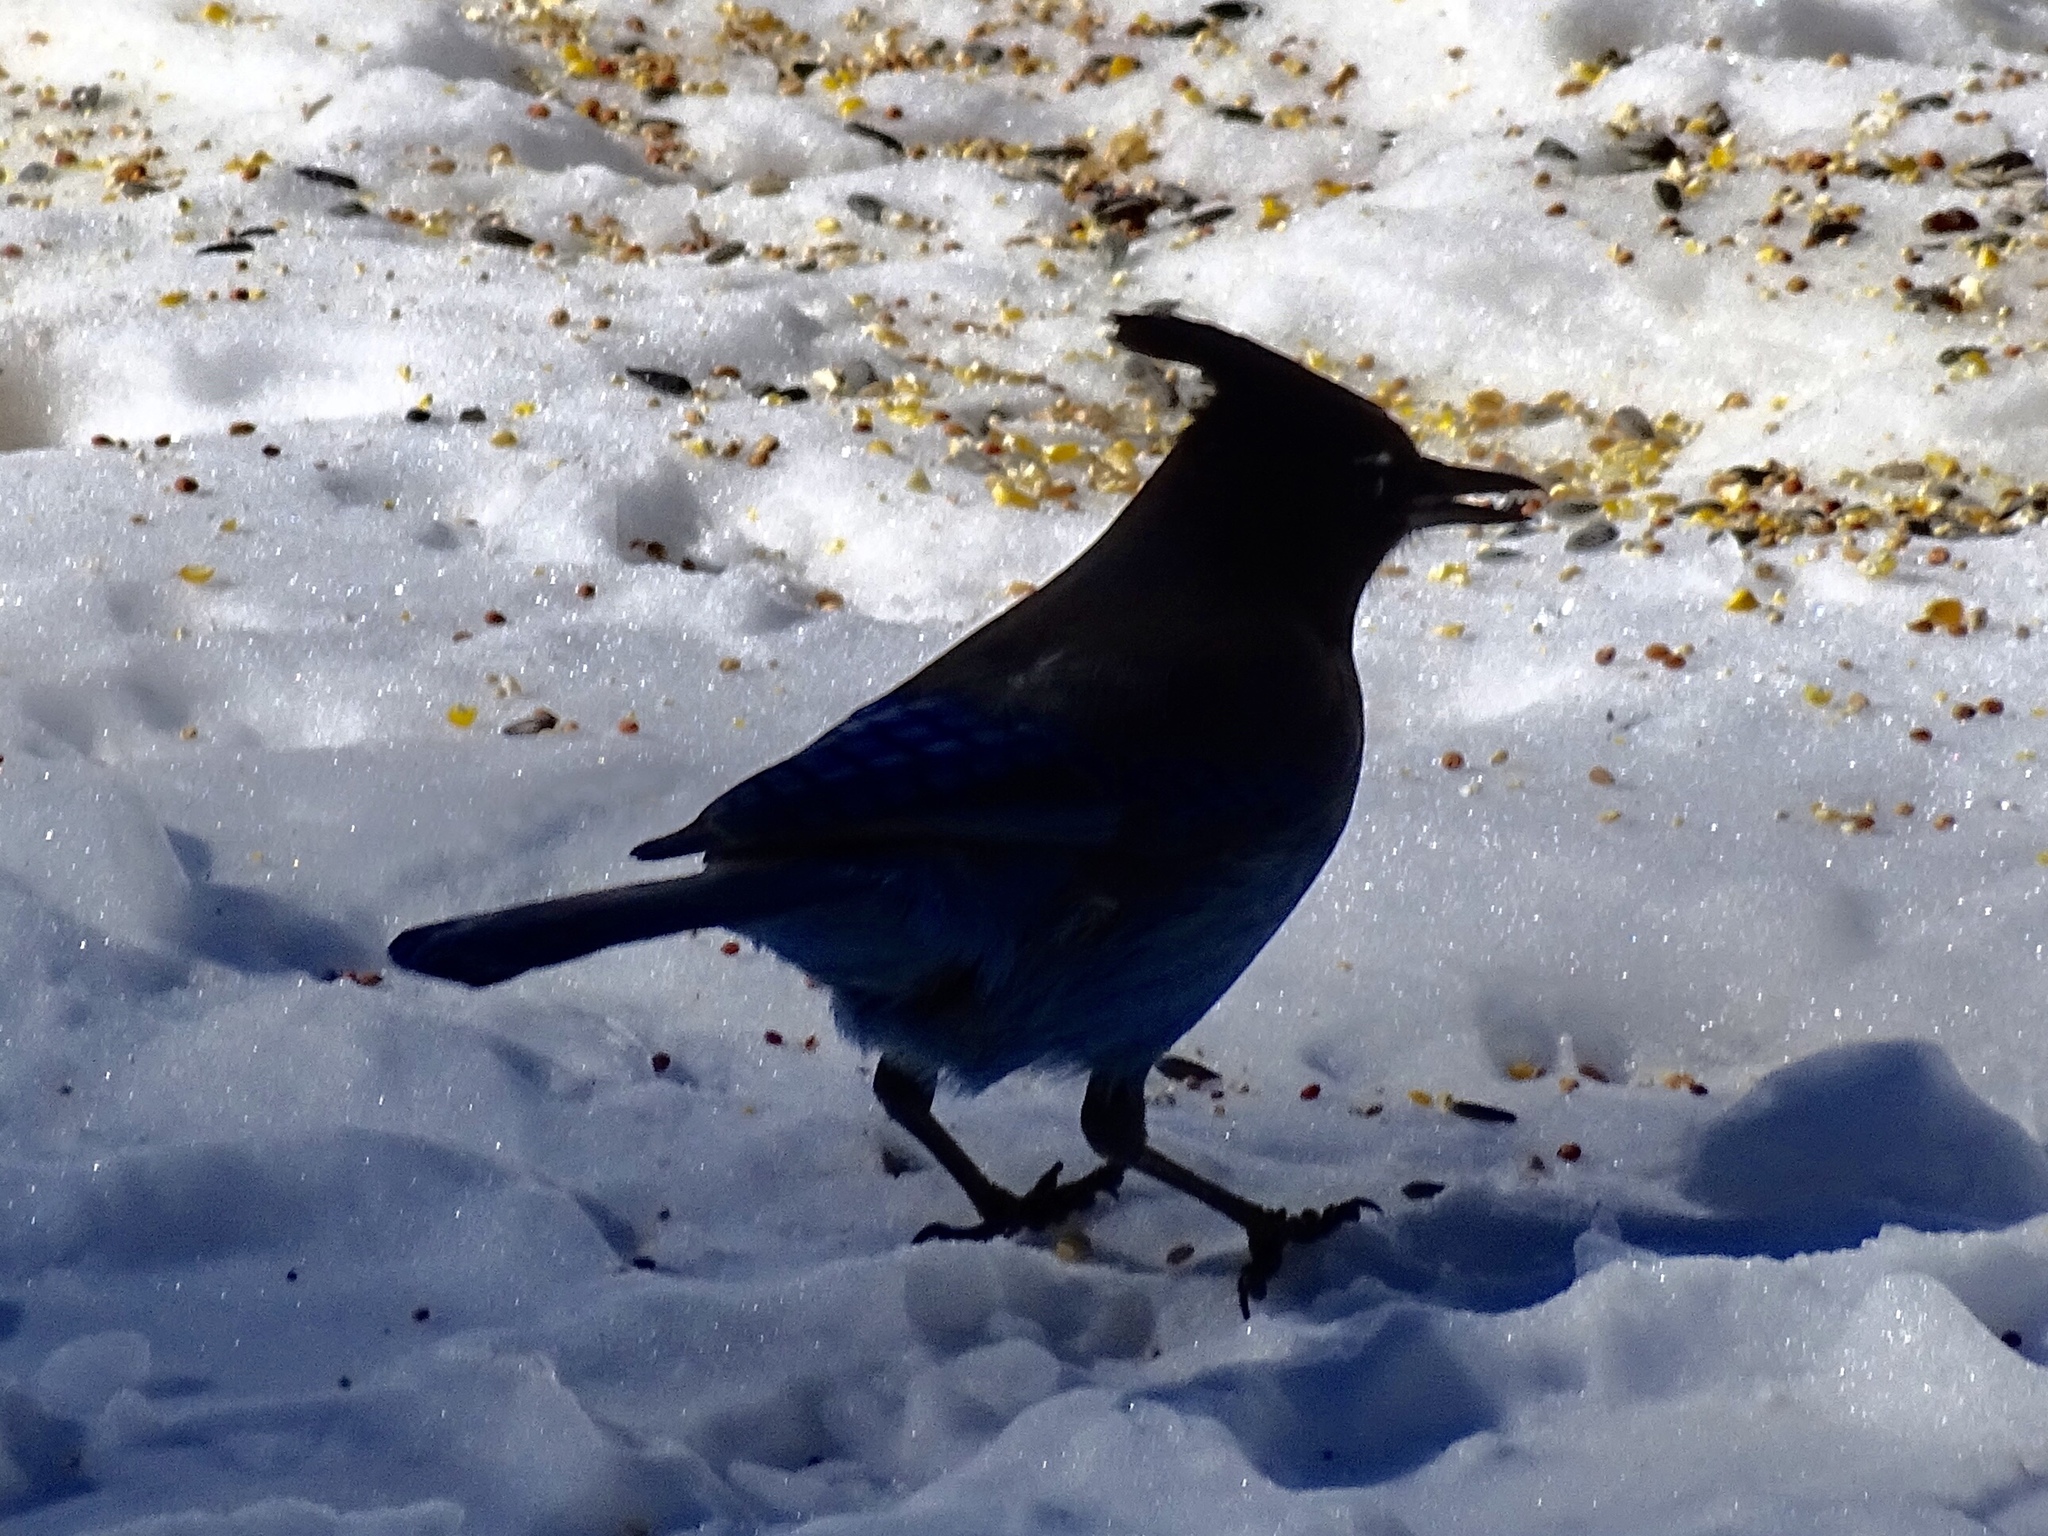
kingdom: Animalia
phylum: Chordata
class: Aves
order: Passeriformes
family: Corvidae
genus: Cyanocitta
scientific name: Cyanocitta stelleri
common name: Steller's jay
